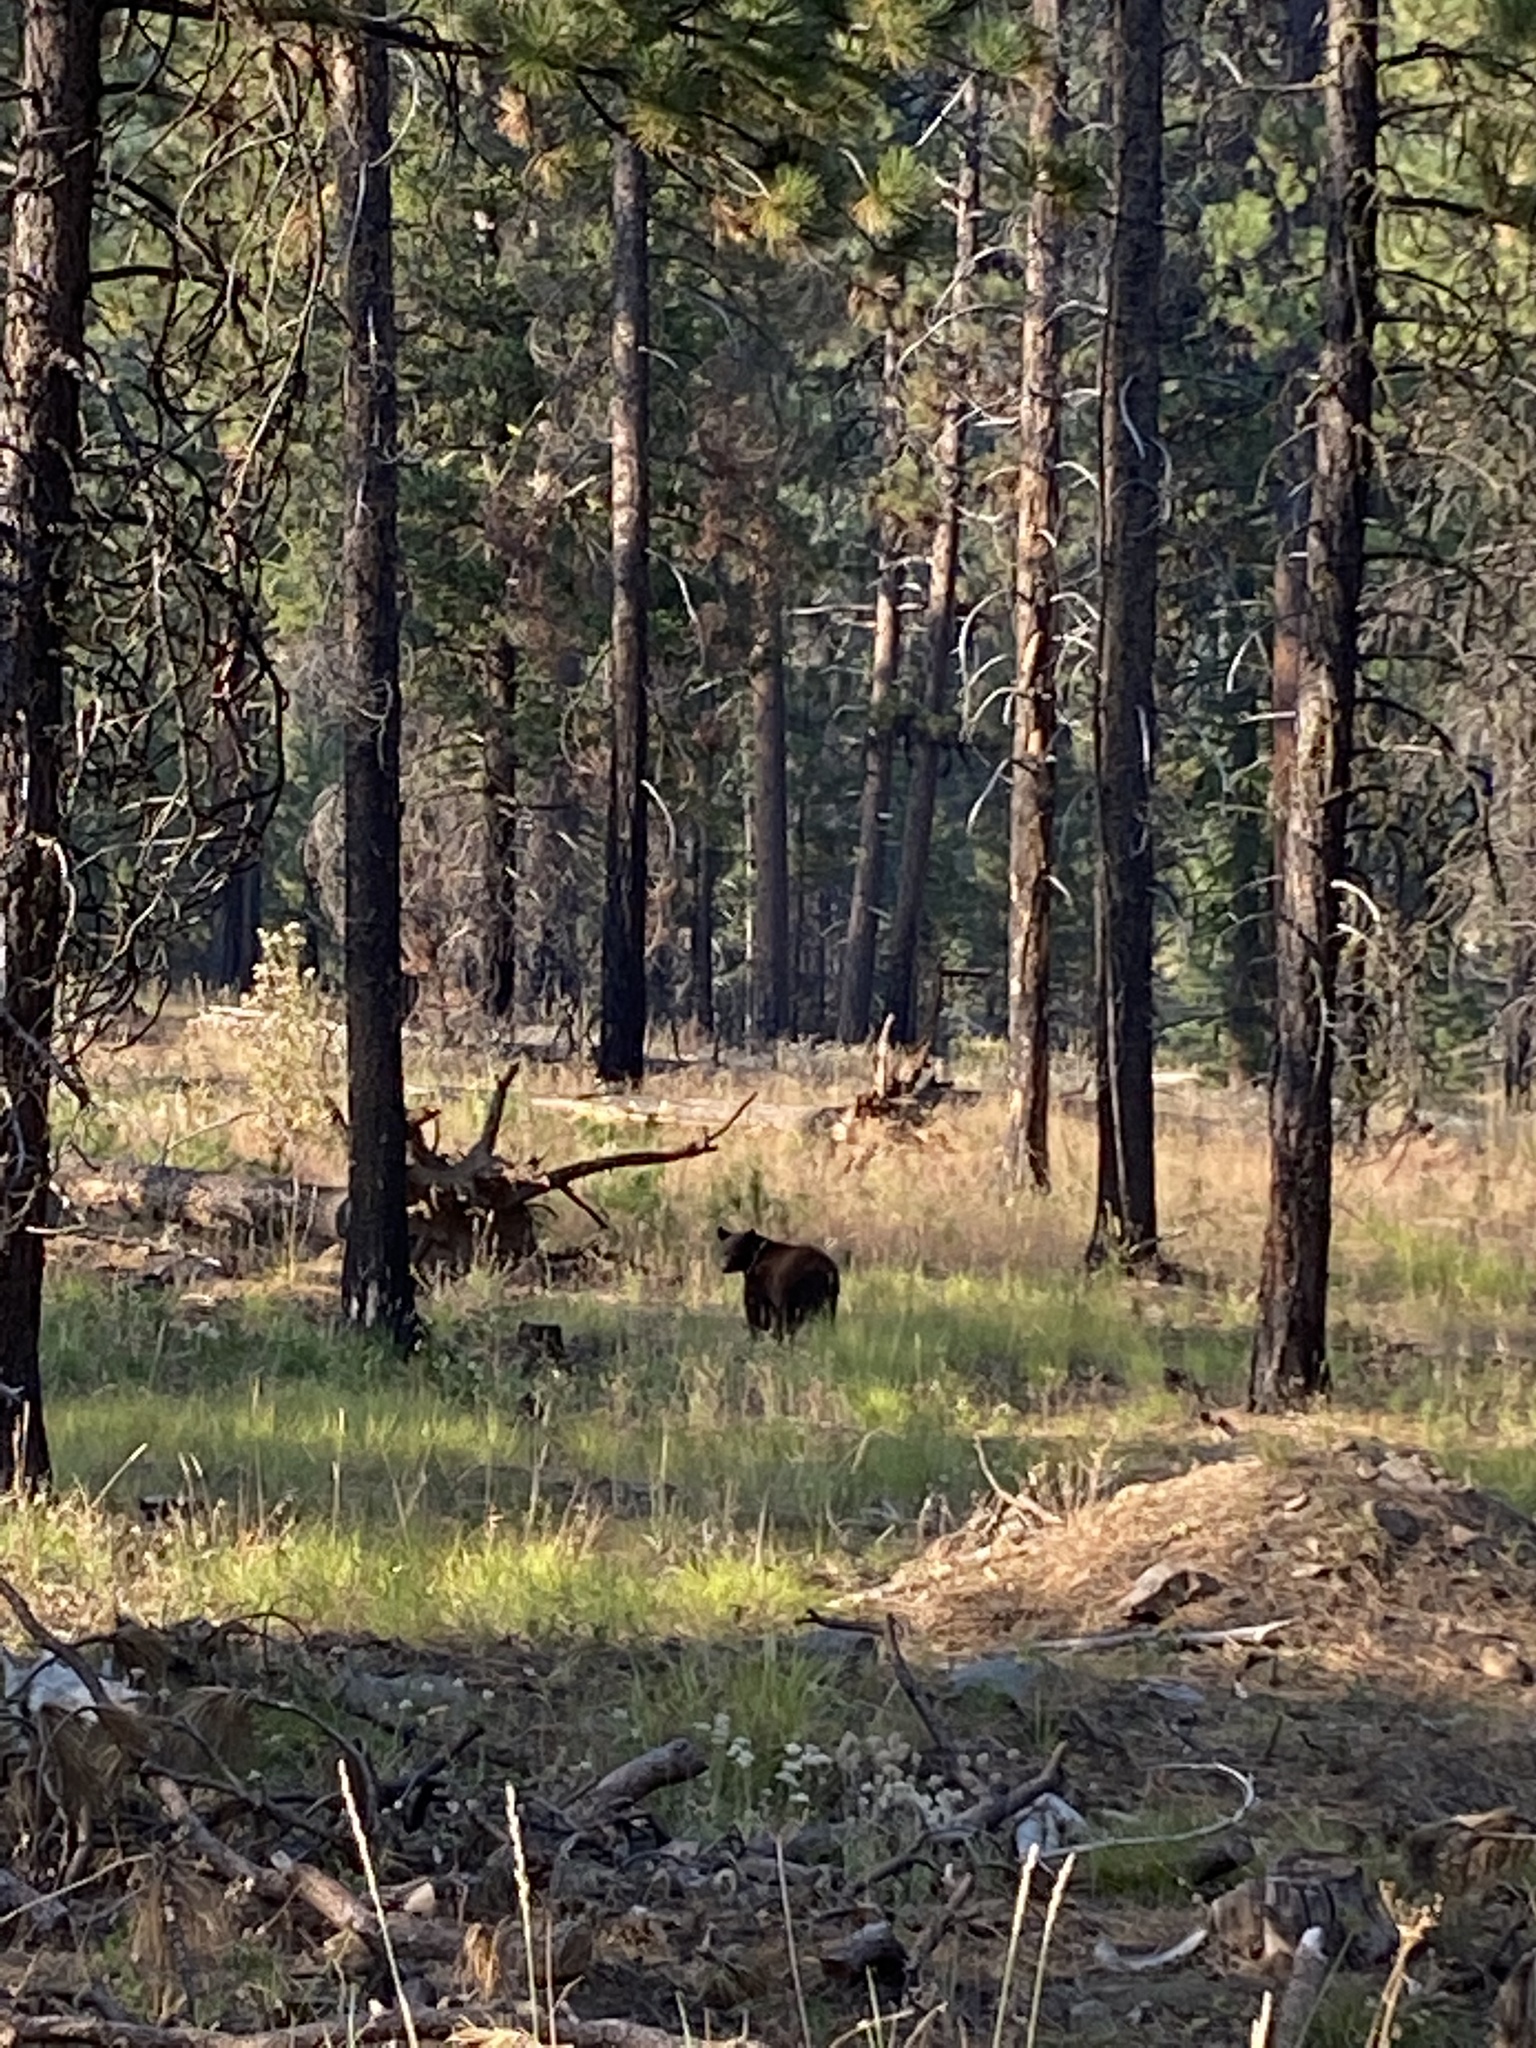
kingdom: Animalia
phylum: Chordata
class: Mammalia
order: Carnivora
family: Ursidae
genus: Ursus
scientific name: Ursus americanus
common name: American black bear
